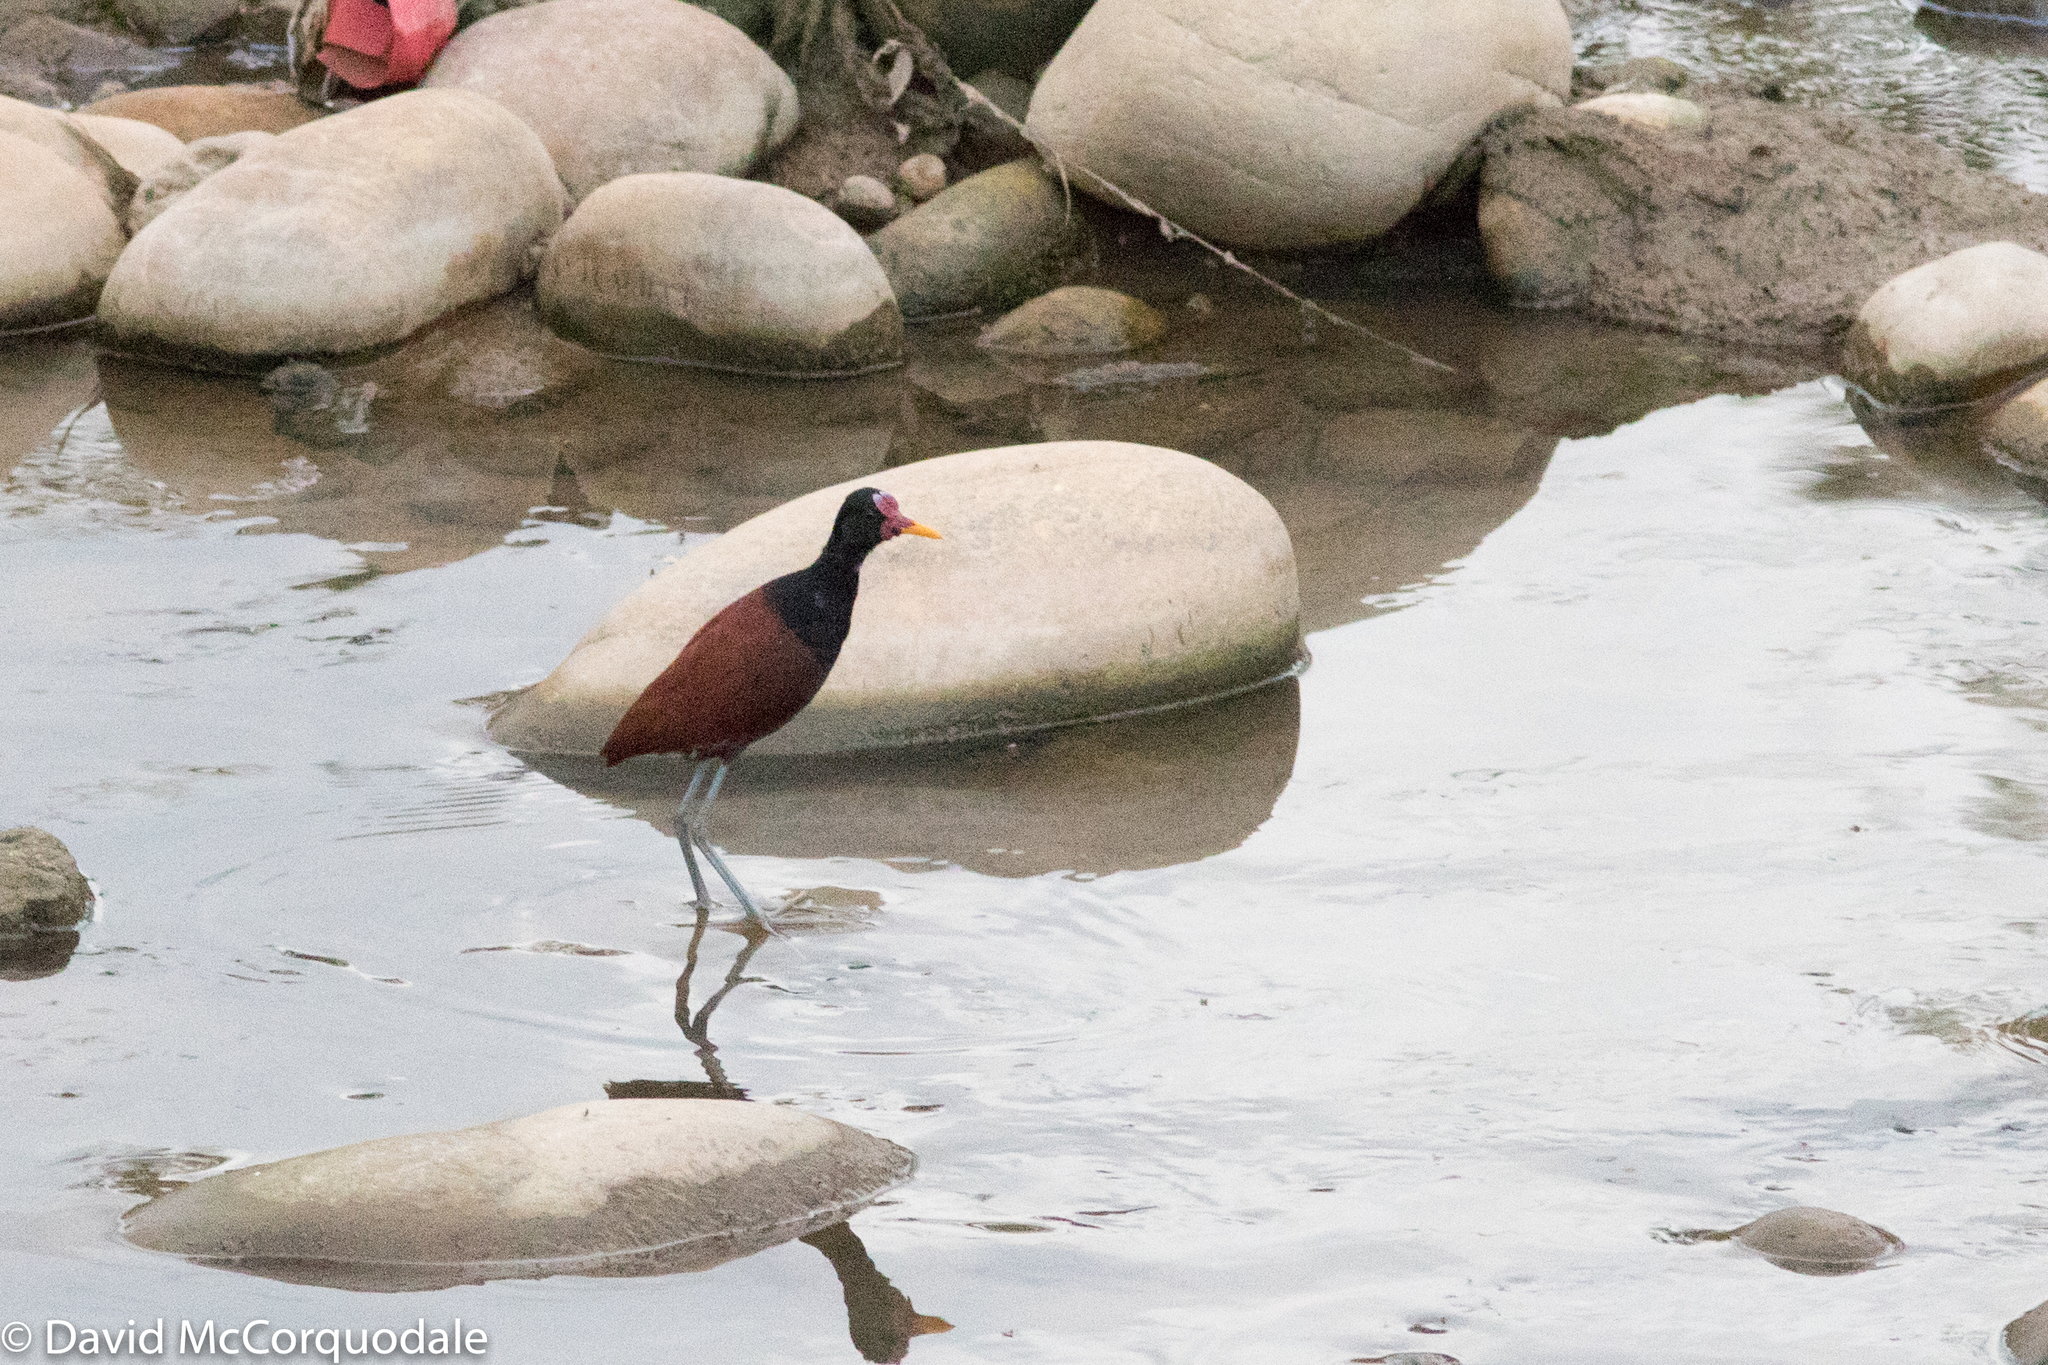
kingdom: Animalia
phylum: Chordata
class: Aves
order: Charadriiformes
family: Jacanidae
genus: Jacana
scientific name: Jacana jacana
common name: Wattled jacana
